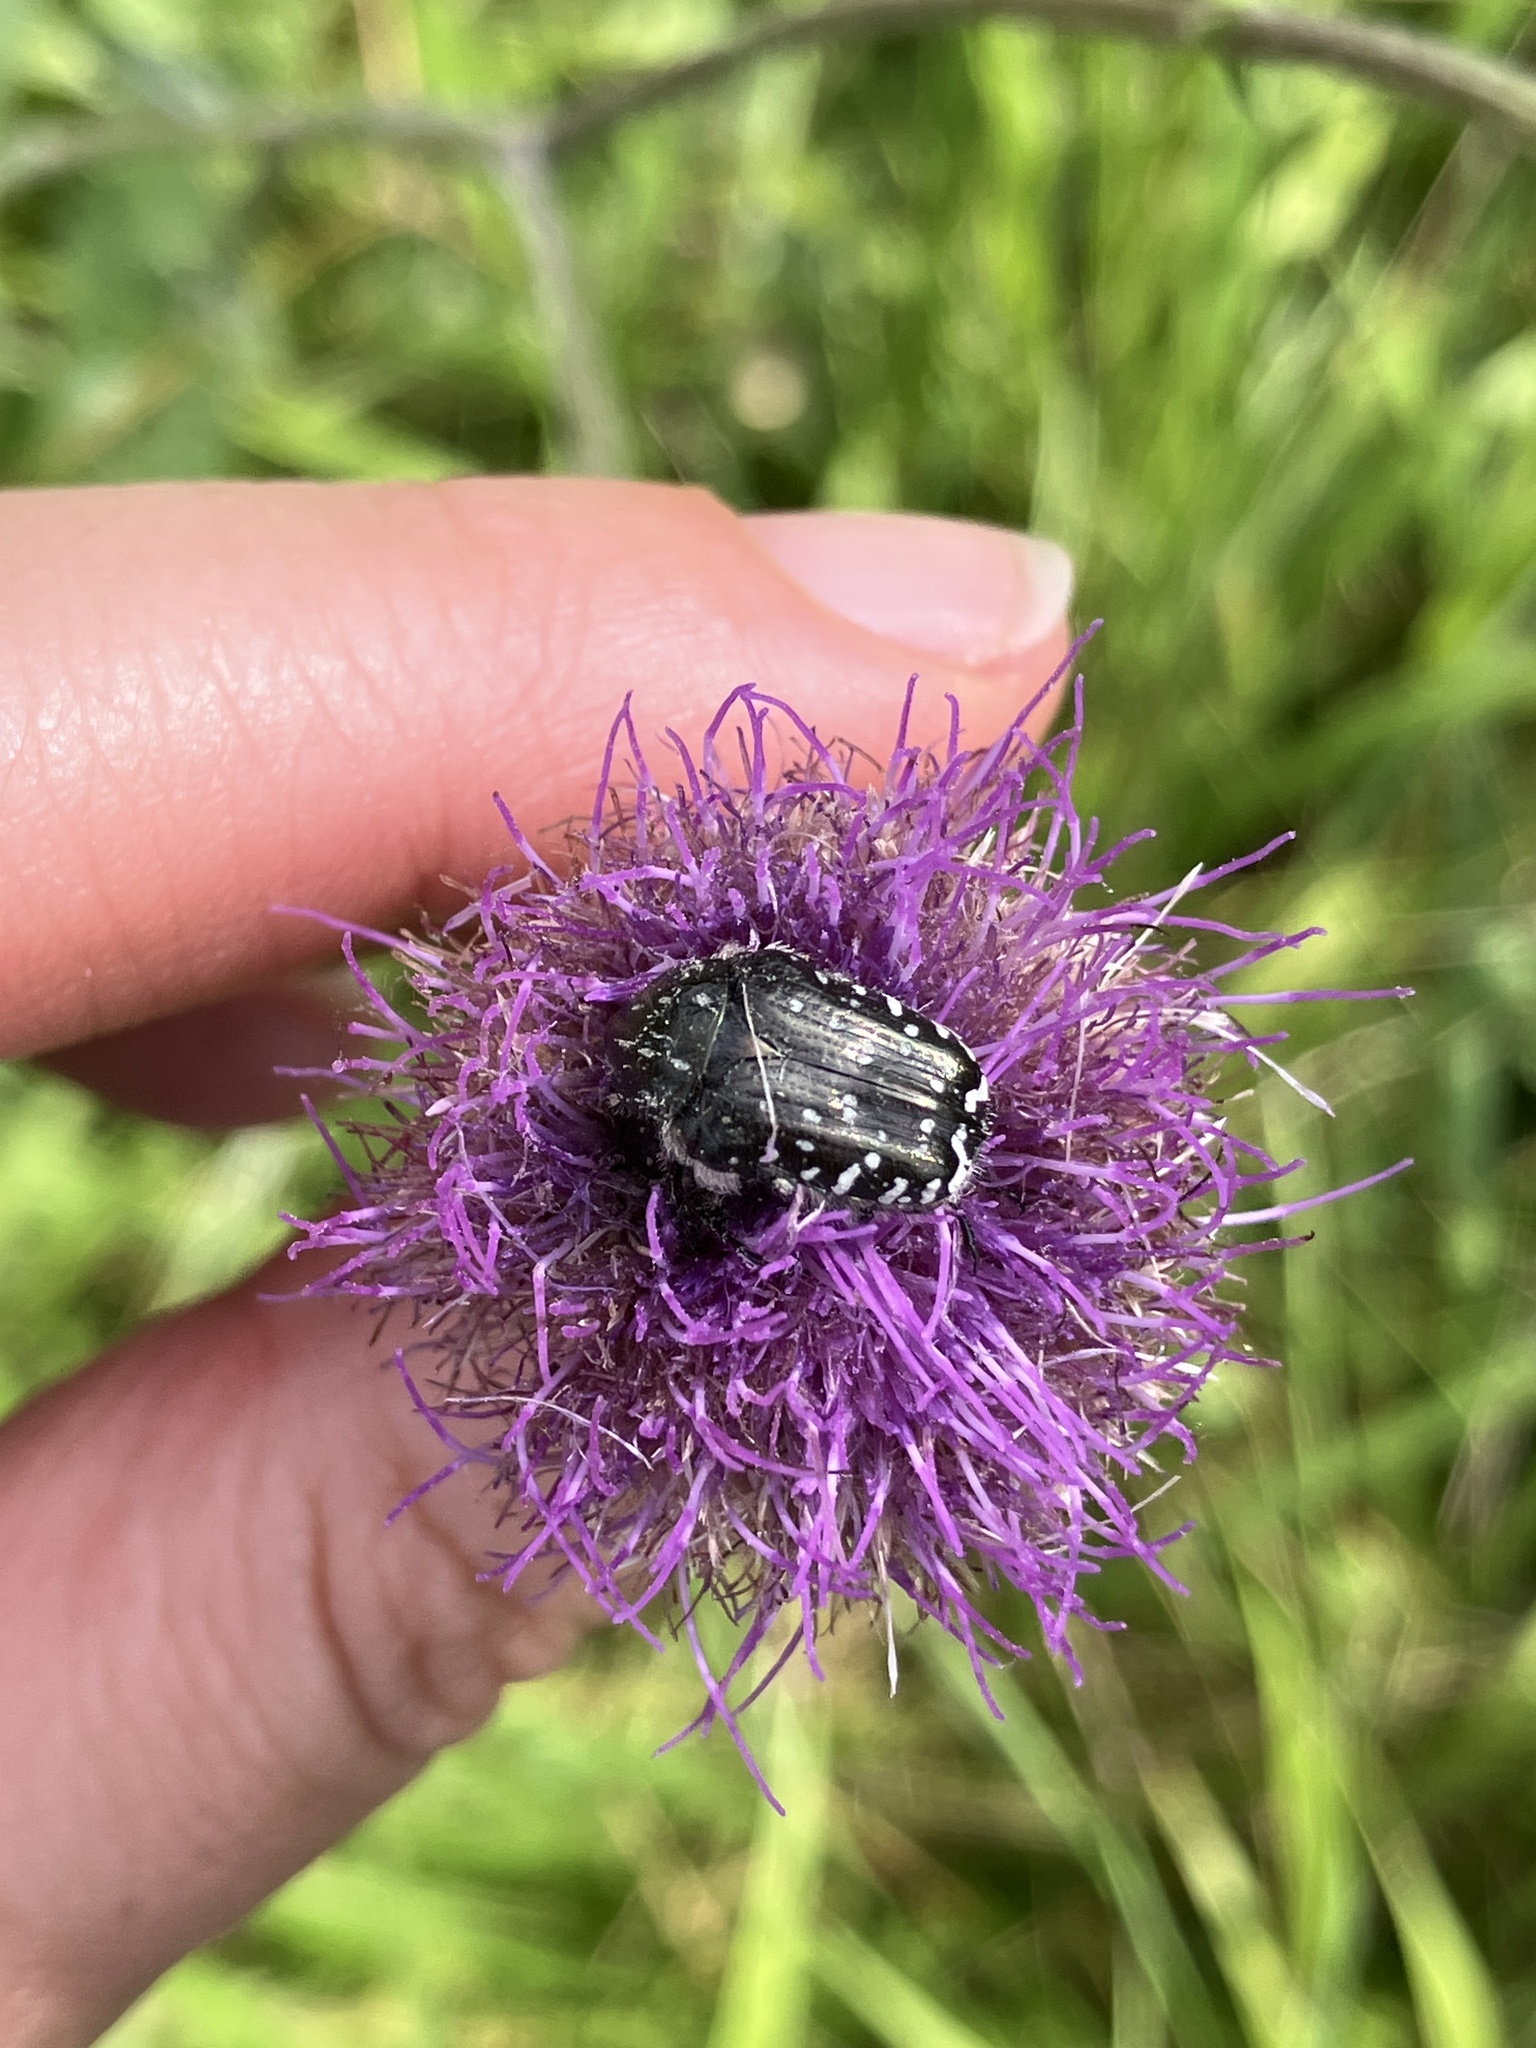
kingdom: Animalia
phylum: Arthropoda
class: Insecta
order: Coleoptera
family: Scarabaeidae
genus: Oxythyrea
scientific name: Oxythyrea funesta
